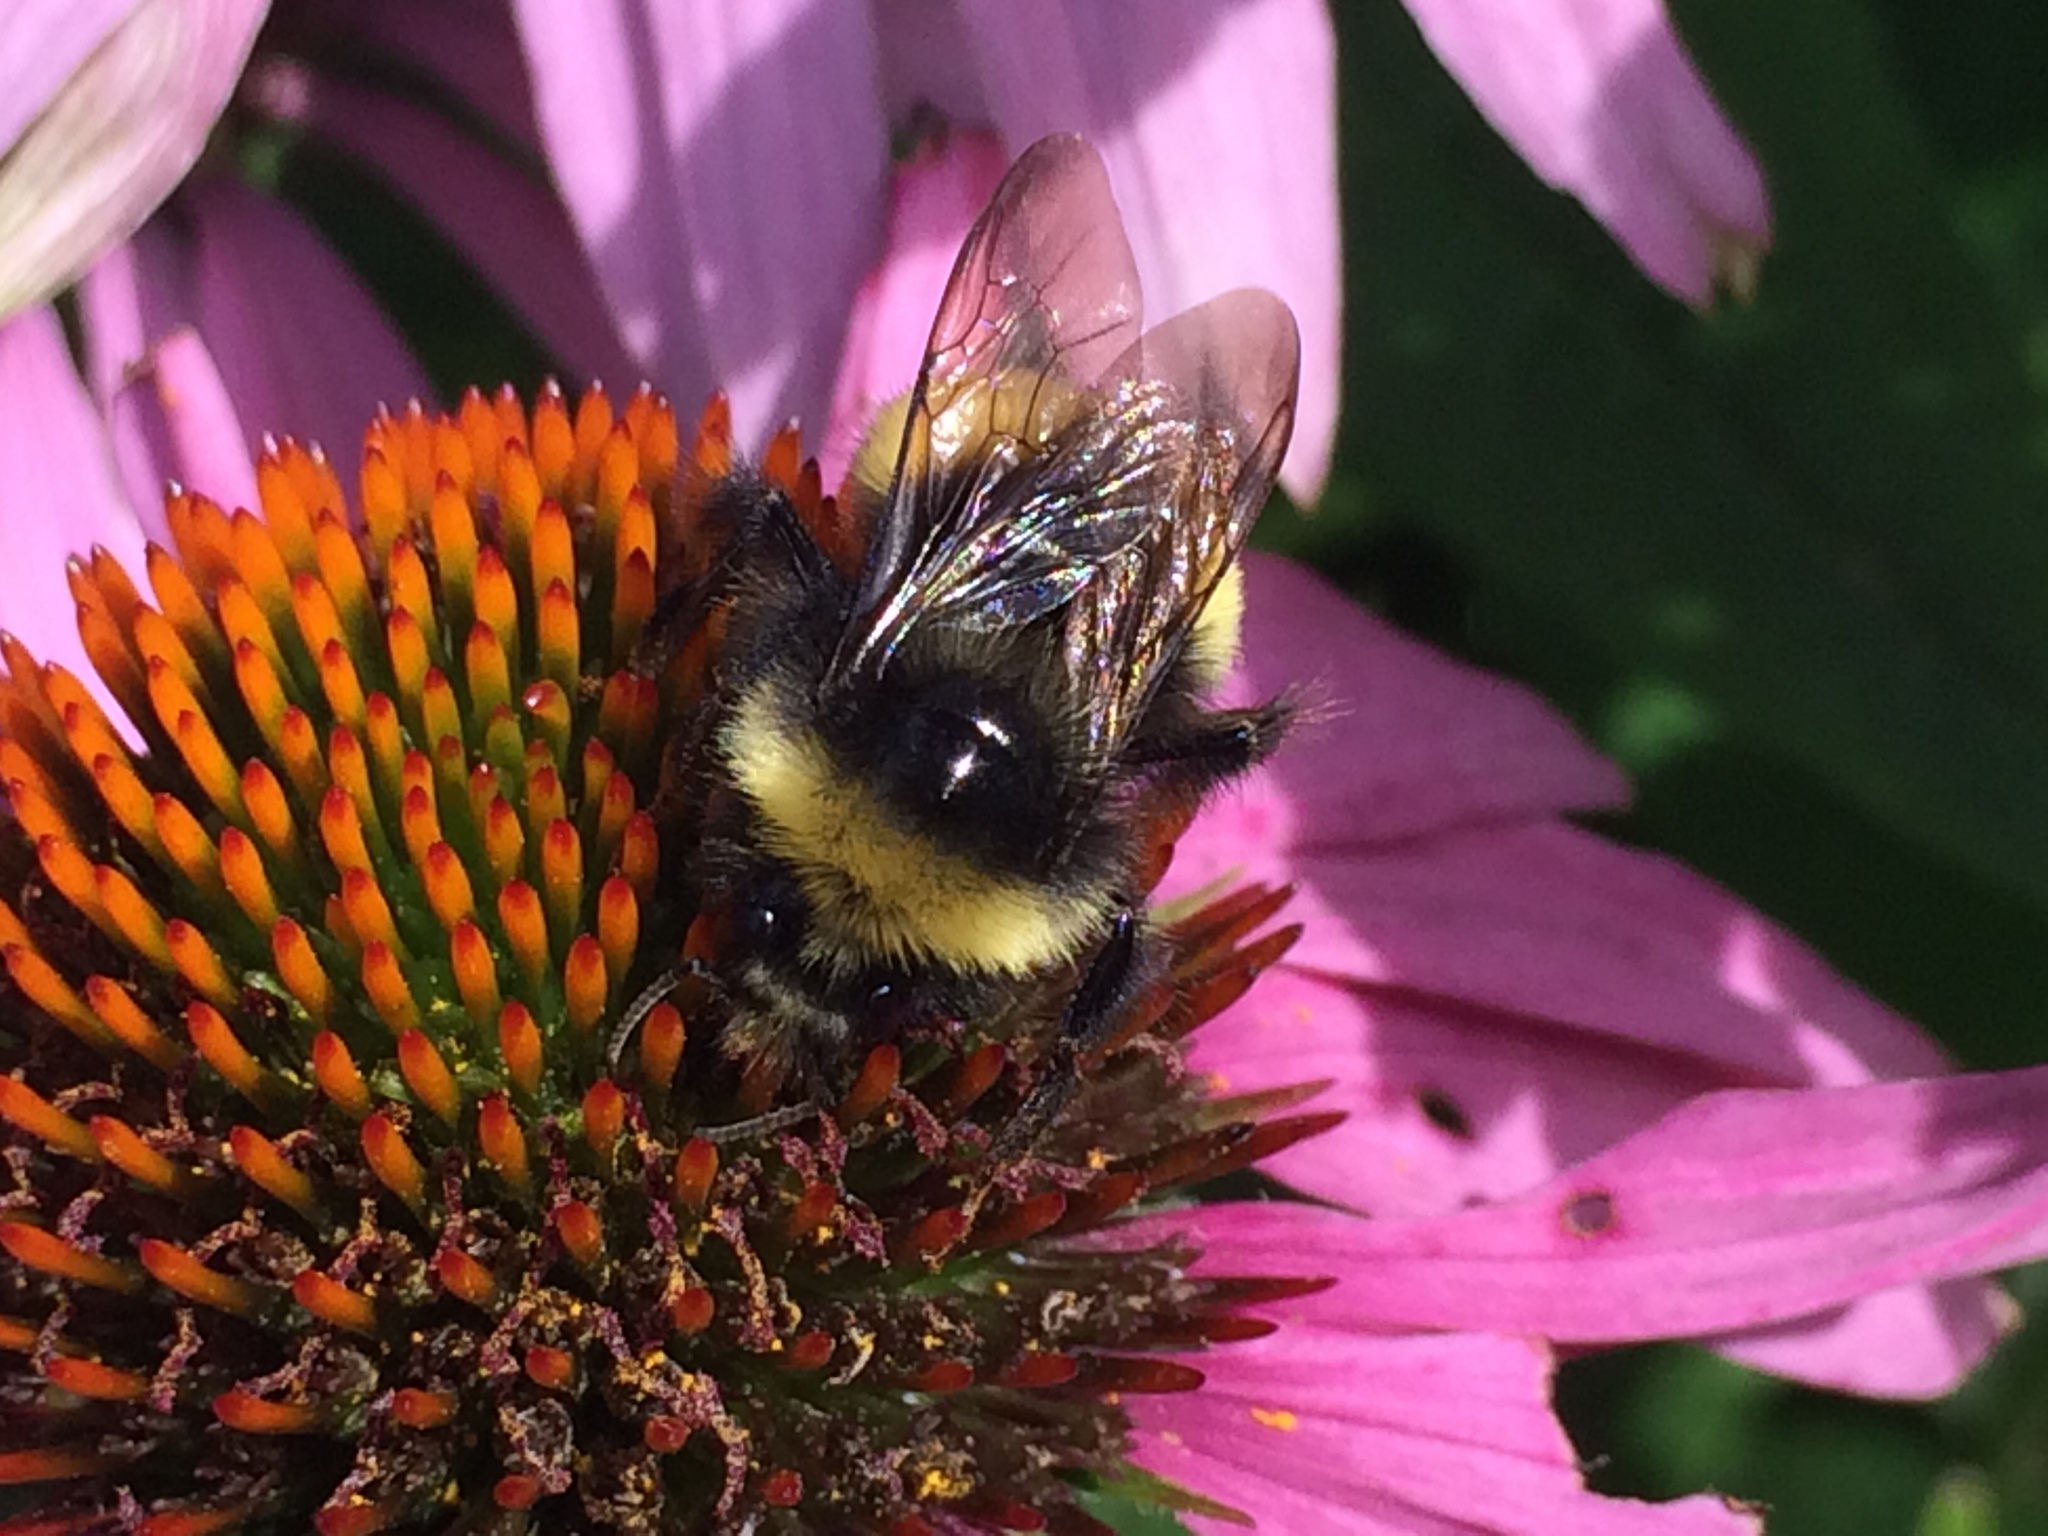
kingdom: Animalia
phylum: Arthropoda
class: Insecta
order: Hymenoptera
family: Apidae
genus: Bombus
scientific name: Bombus terricola
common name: Yellow-banded bumble bee
